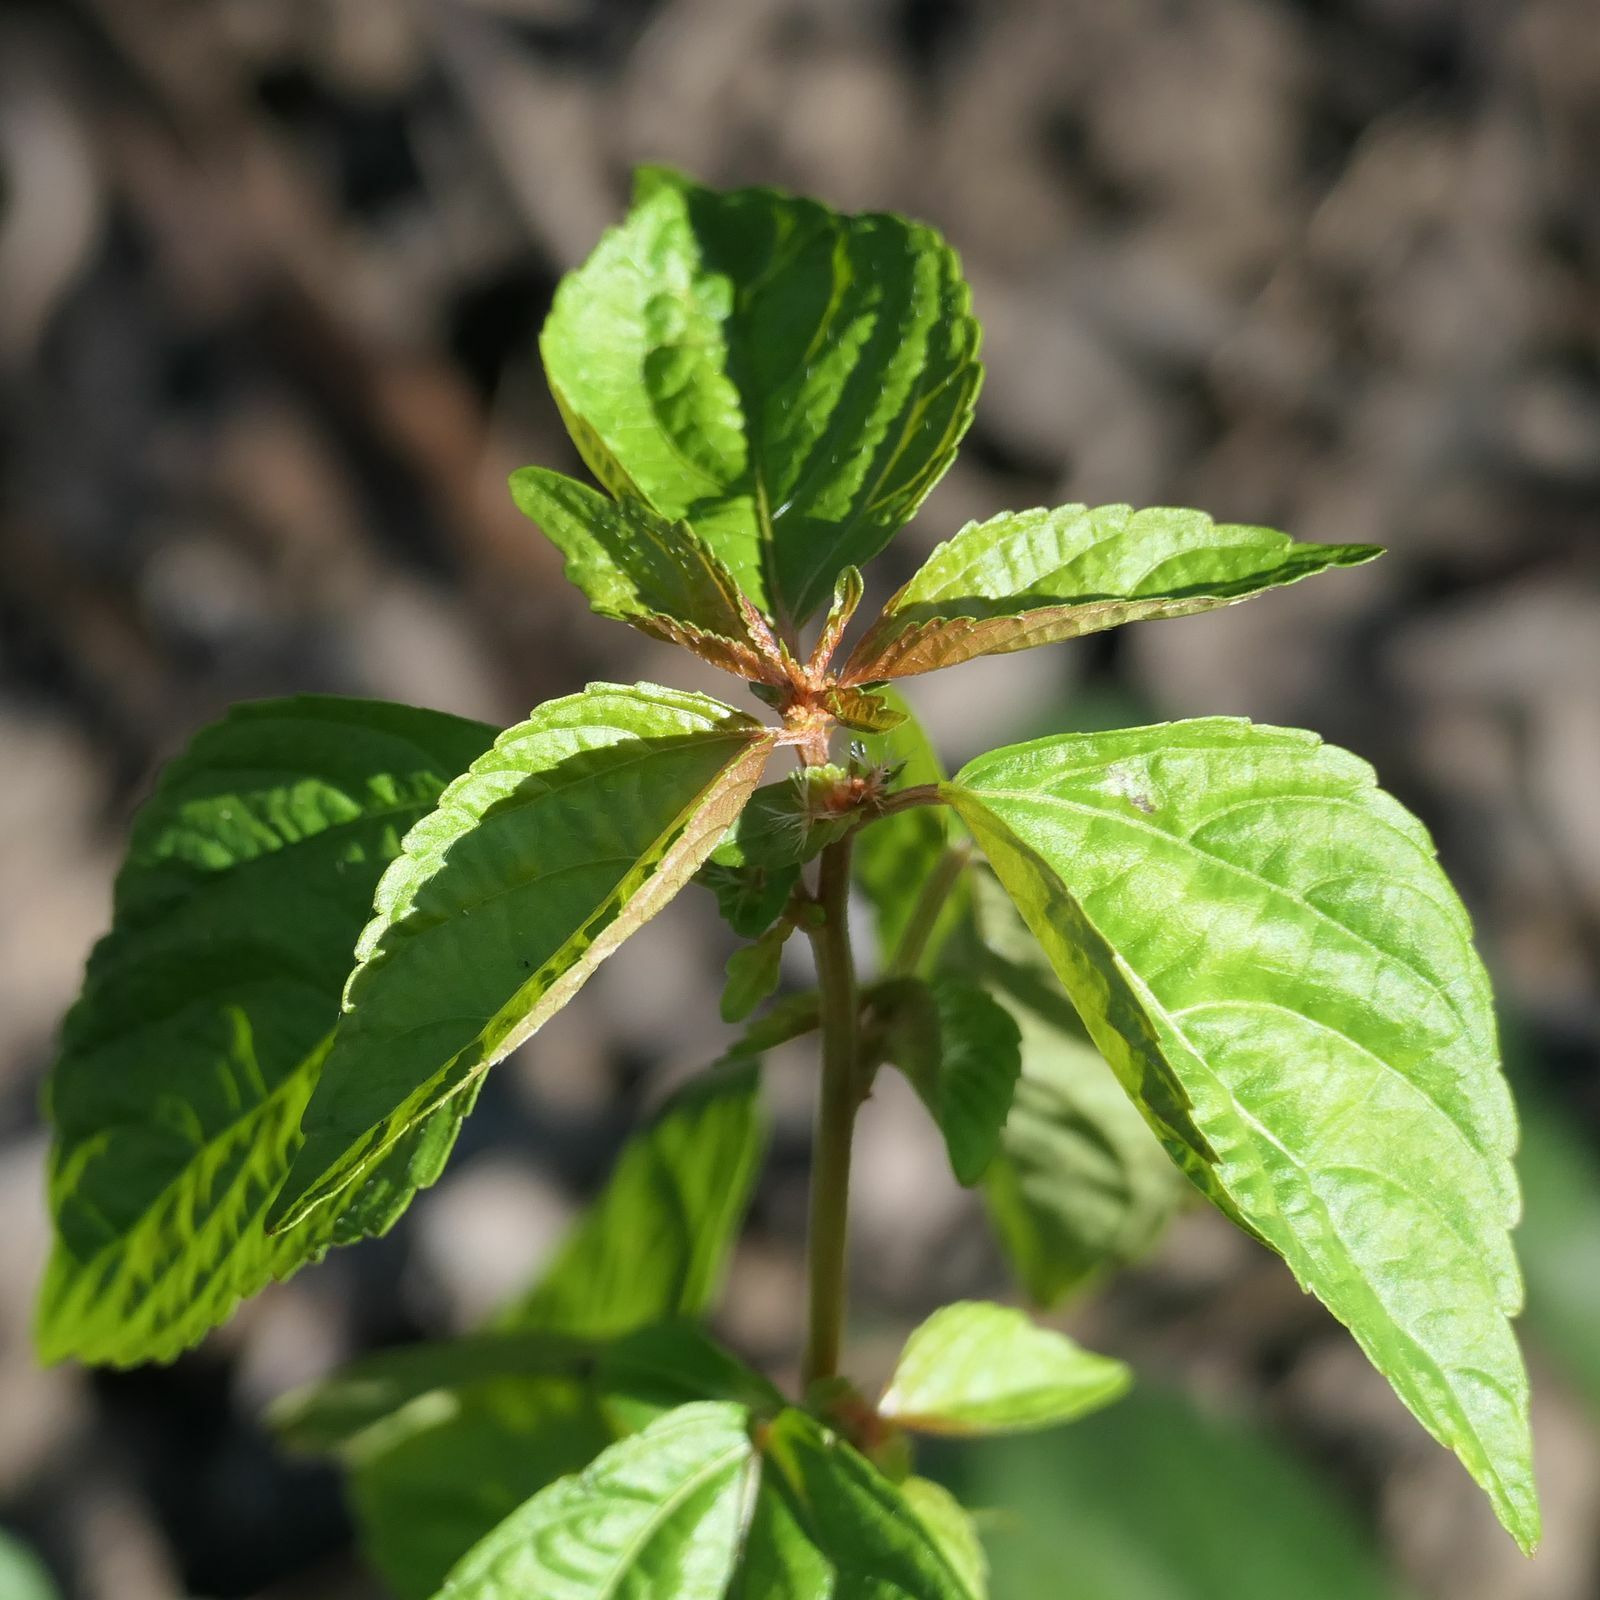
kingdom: Plantae
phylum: Tracheophyta
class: Magnoliopsida
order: Malpighiales
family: Euphorbiaceae
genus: Acalypha
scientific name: Acalypha australis
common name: Asian copperleaf
